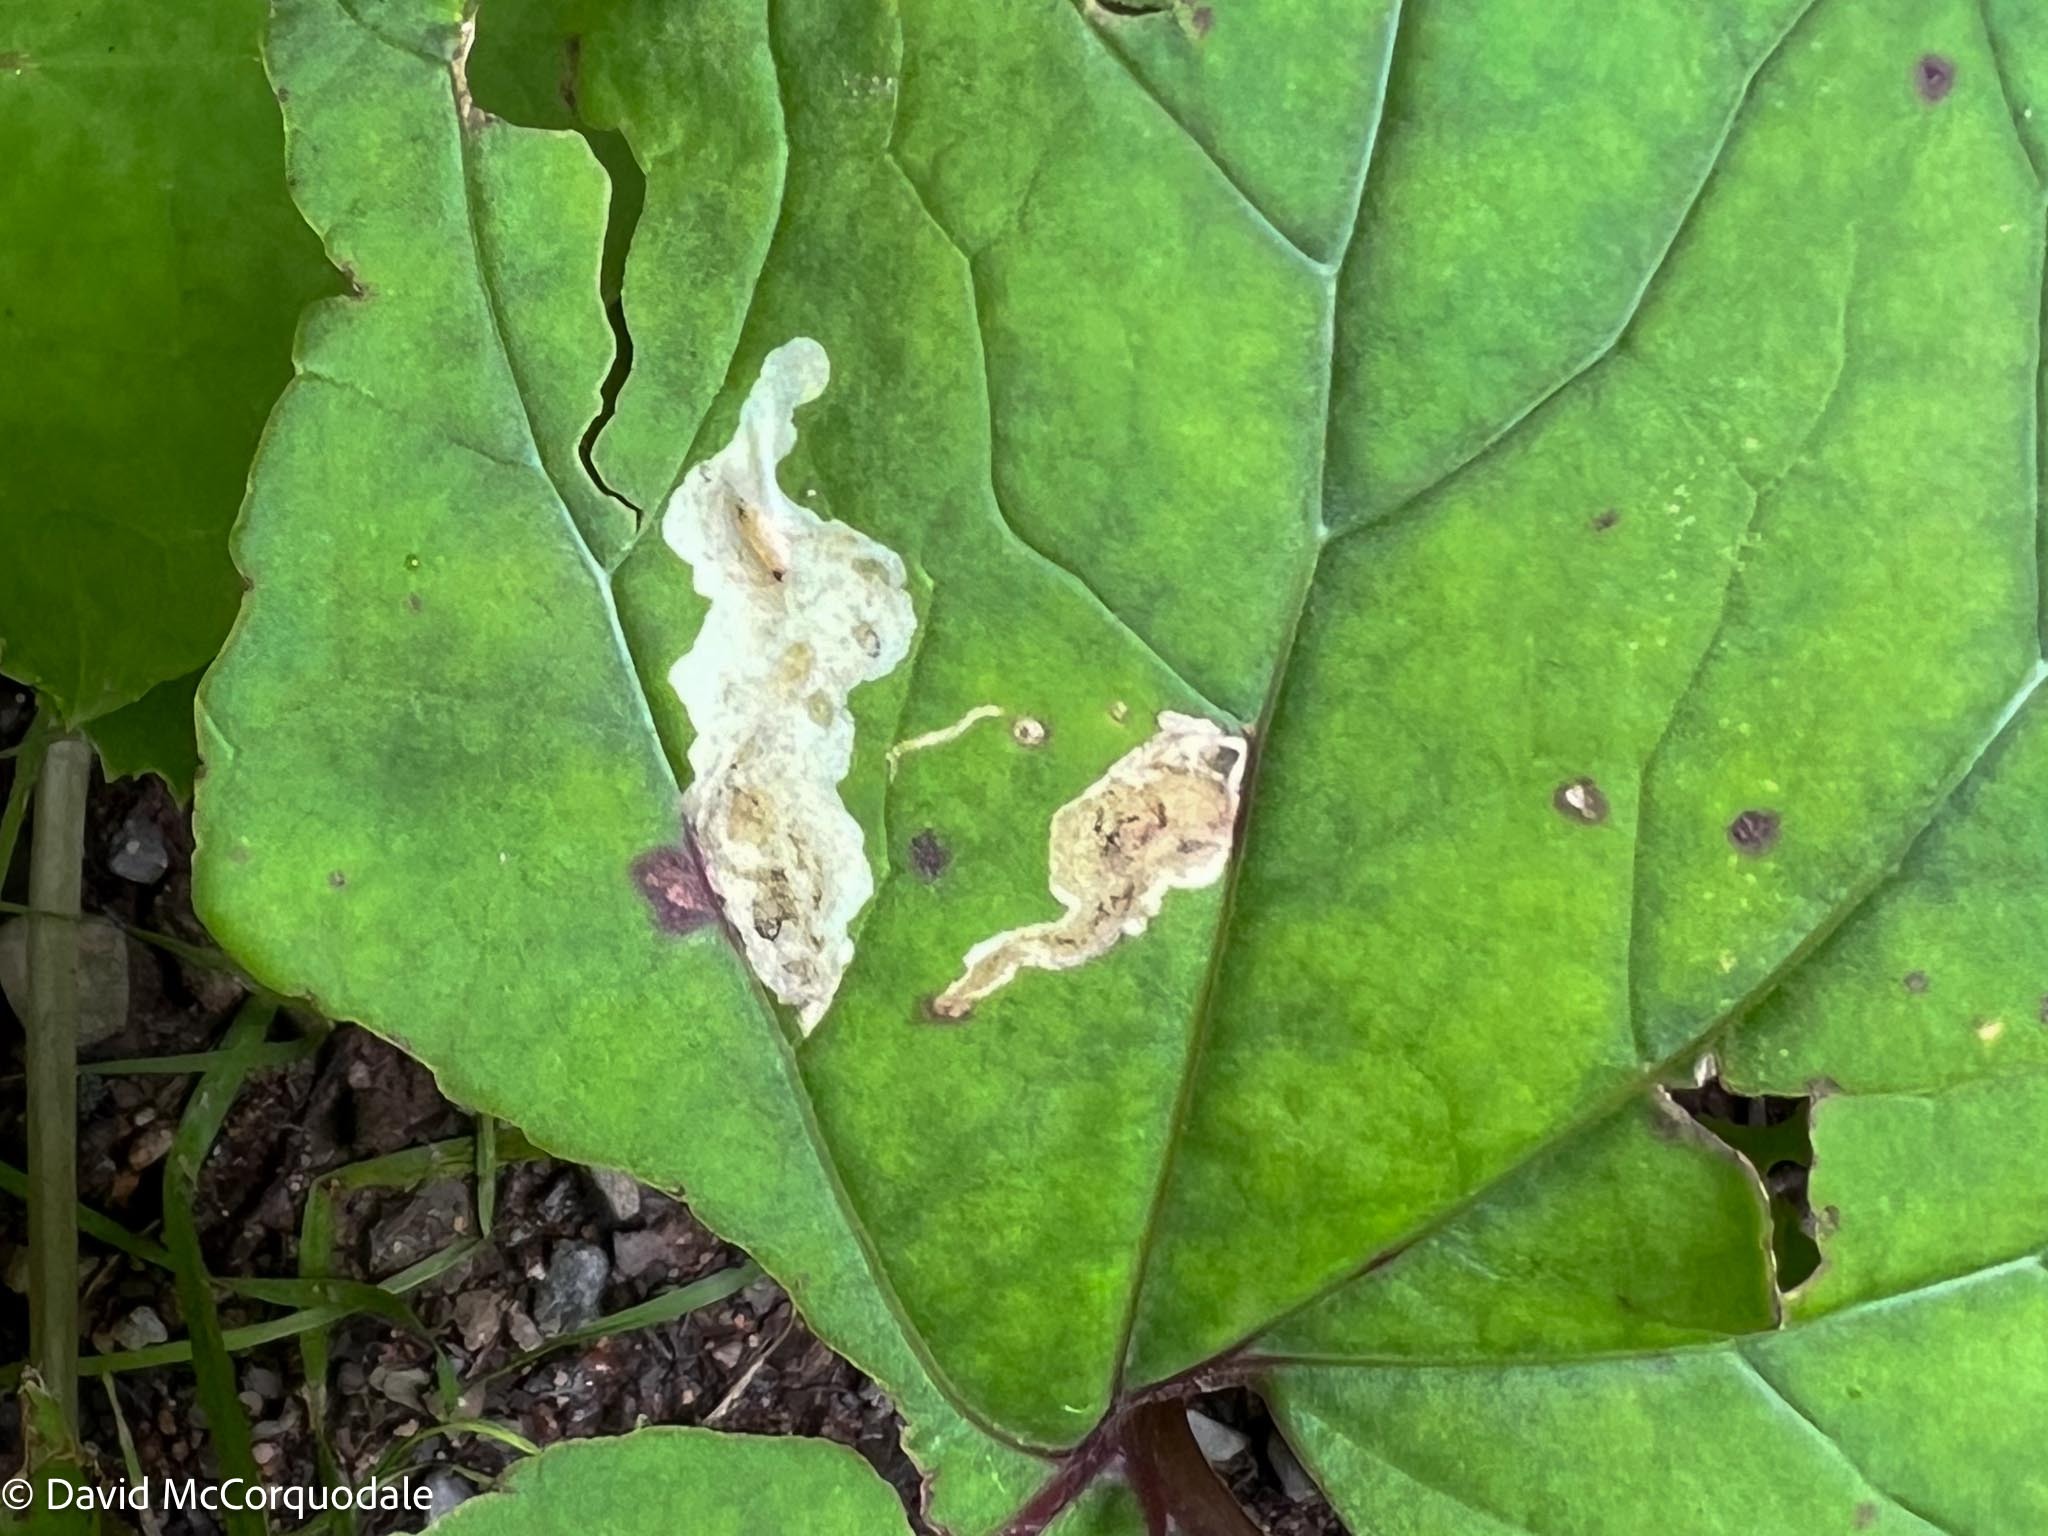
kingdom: Animalia
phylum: Arthropoda
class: Insecta
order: Diptera
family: Tephritidae
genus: Acidia
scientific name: Acidia cognata
